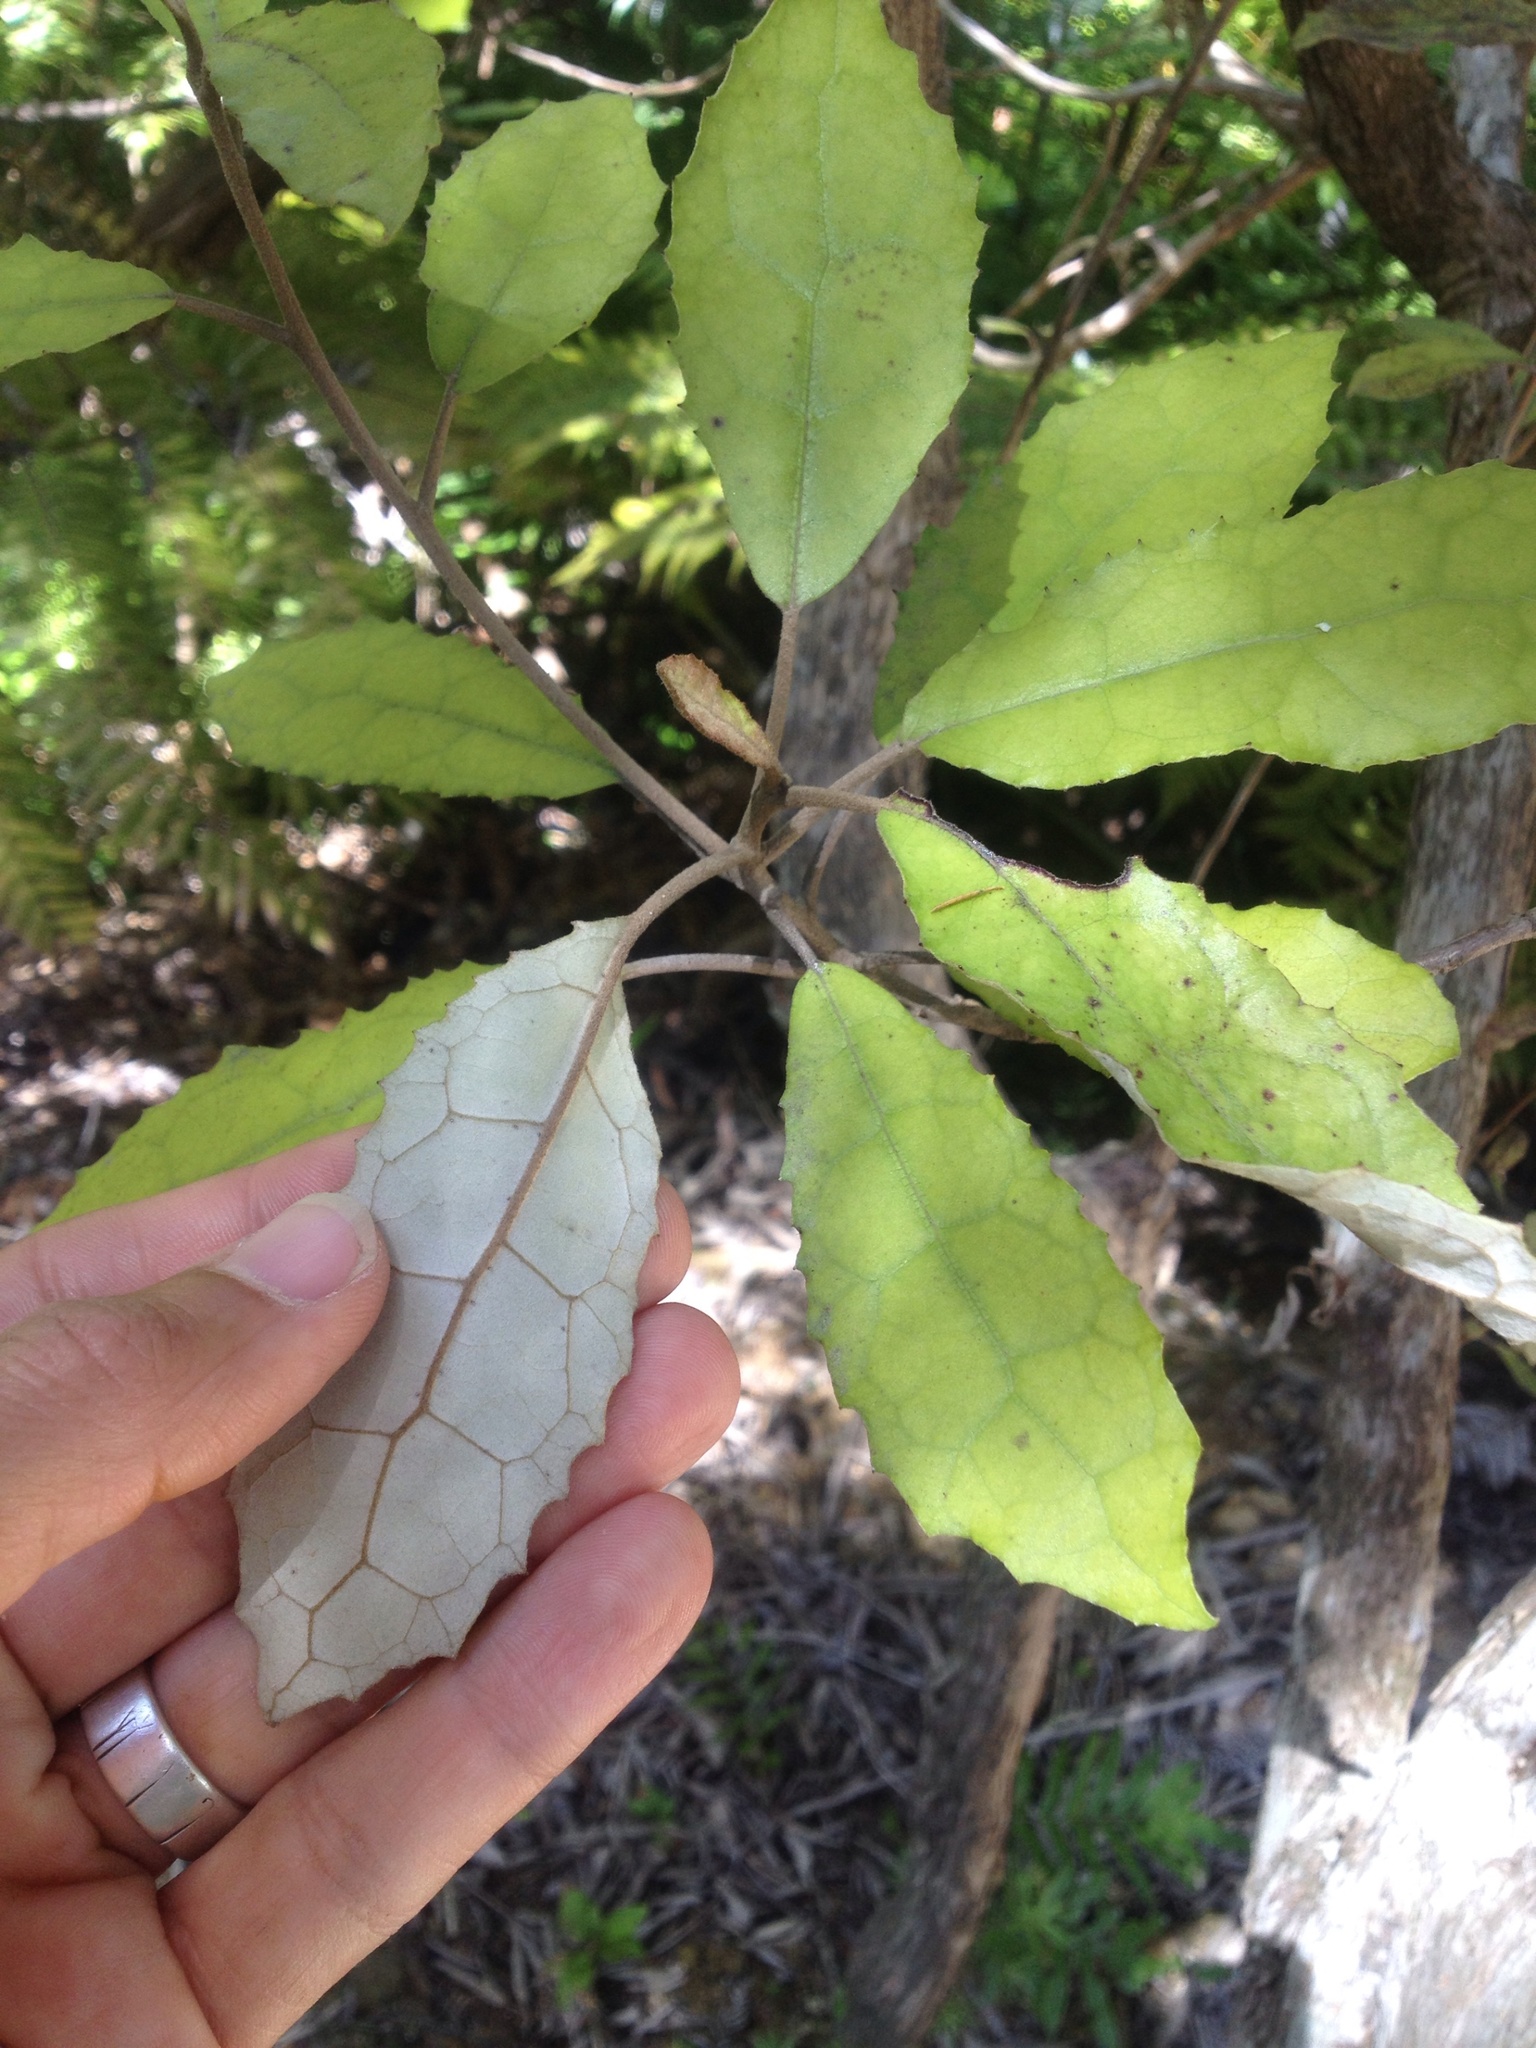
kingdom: Plantae
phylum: Tracheophyta
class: Magnoliopsida
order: Asterales
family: Asteraceae
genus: Olearia
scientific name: Olearia rani
